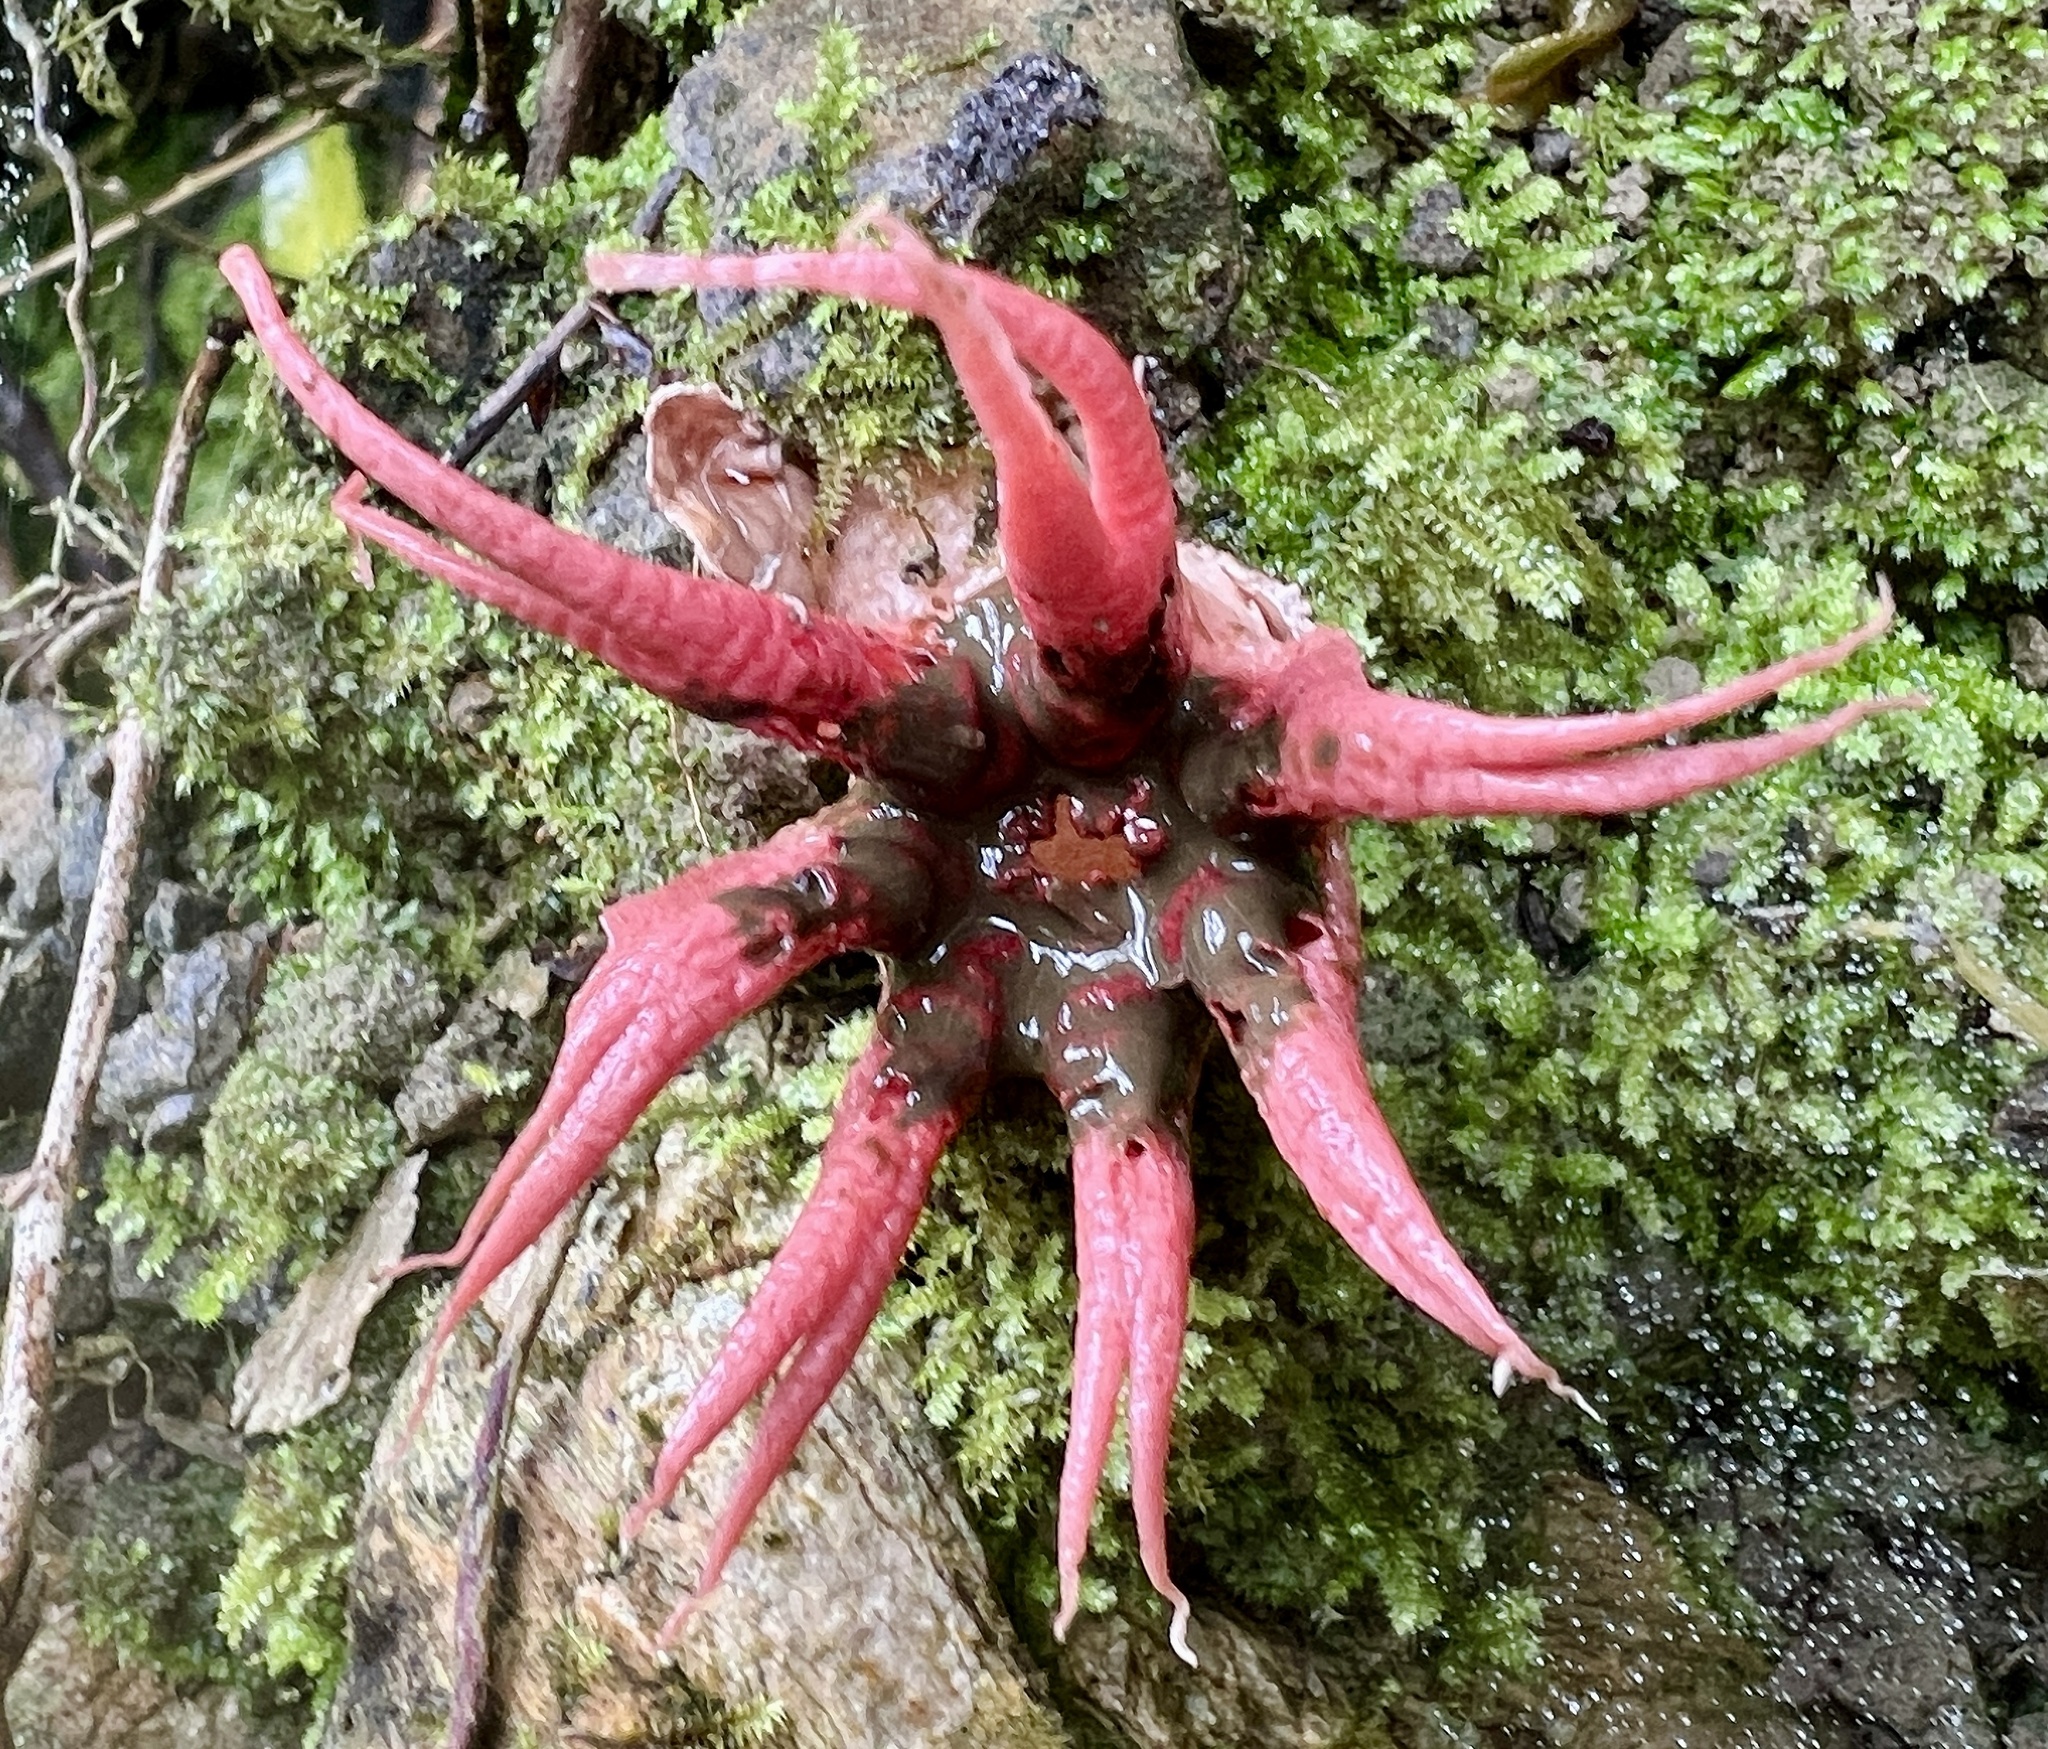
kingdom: Fungi
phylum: Basidiomycota
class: Agaricomycetes
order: Phallales
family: Phallaceae
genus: Aseroe
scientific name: Aseroe rubra
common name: Starfish fungus
